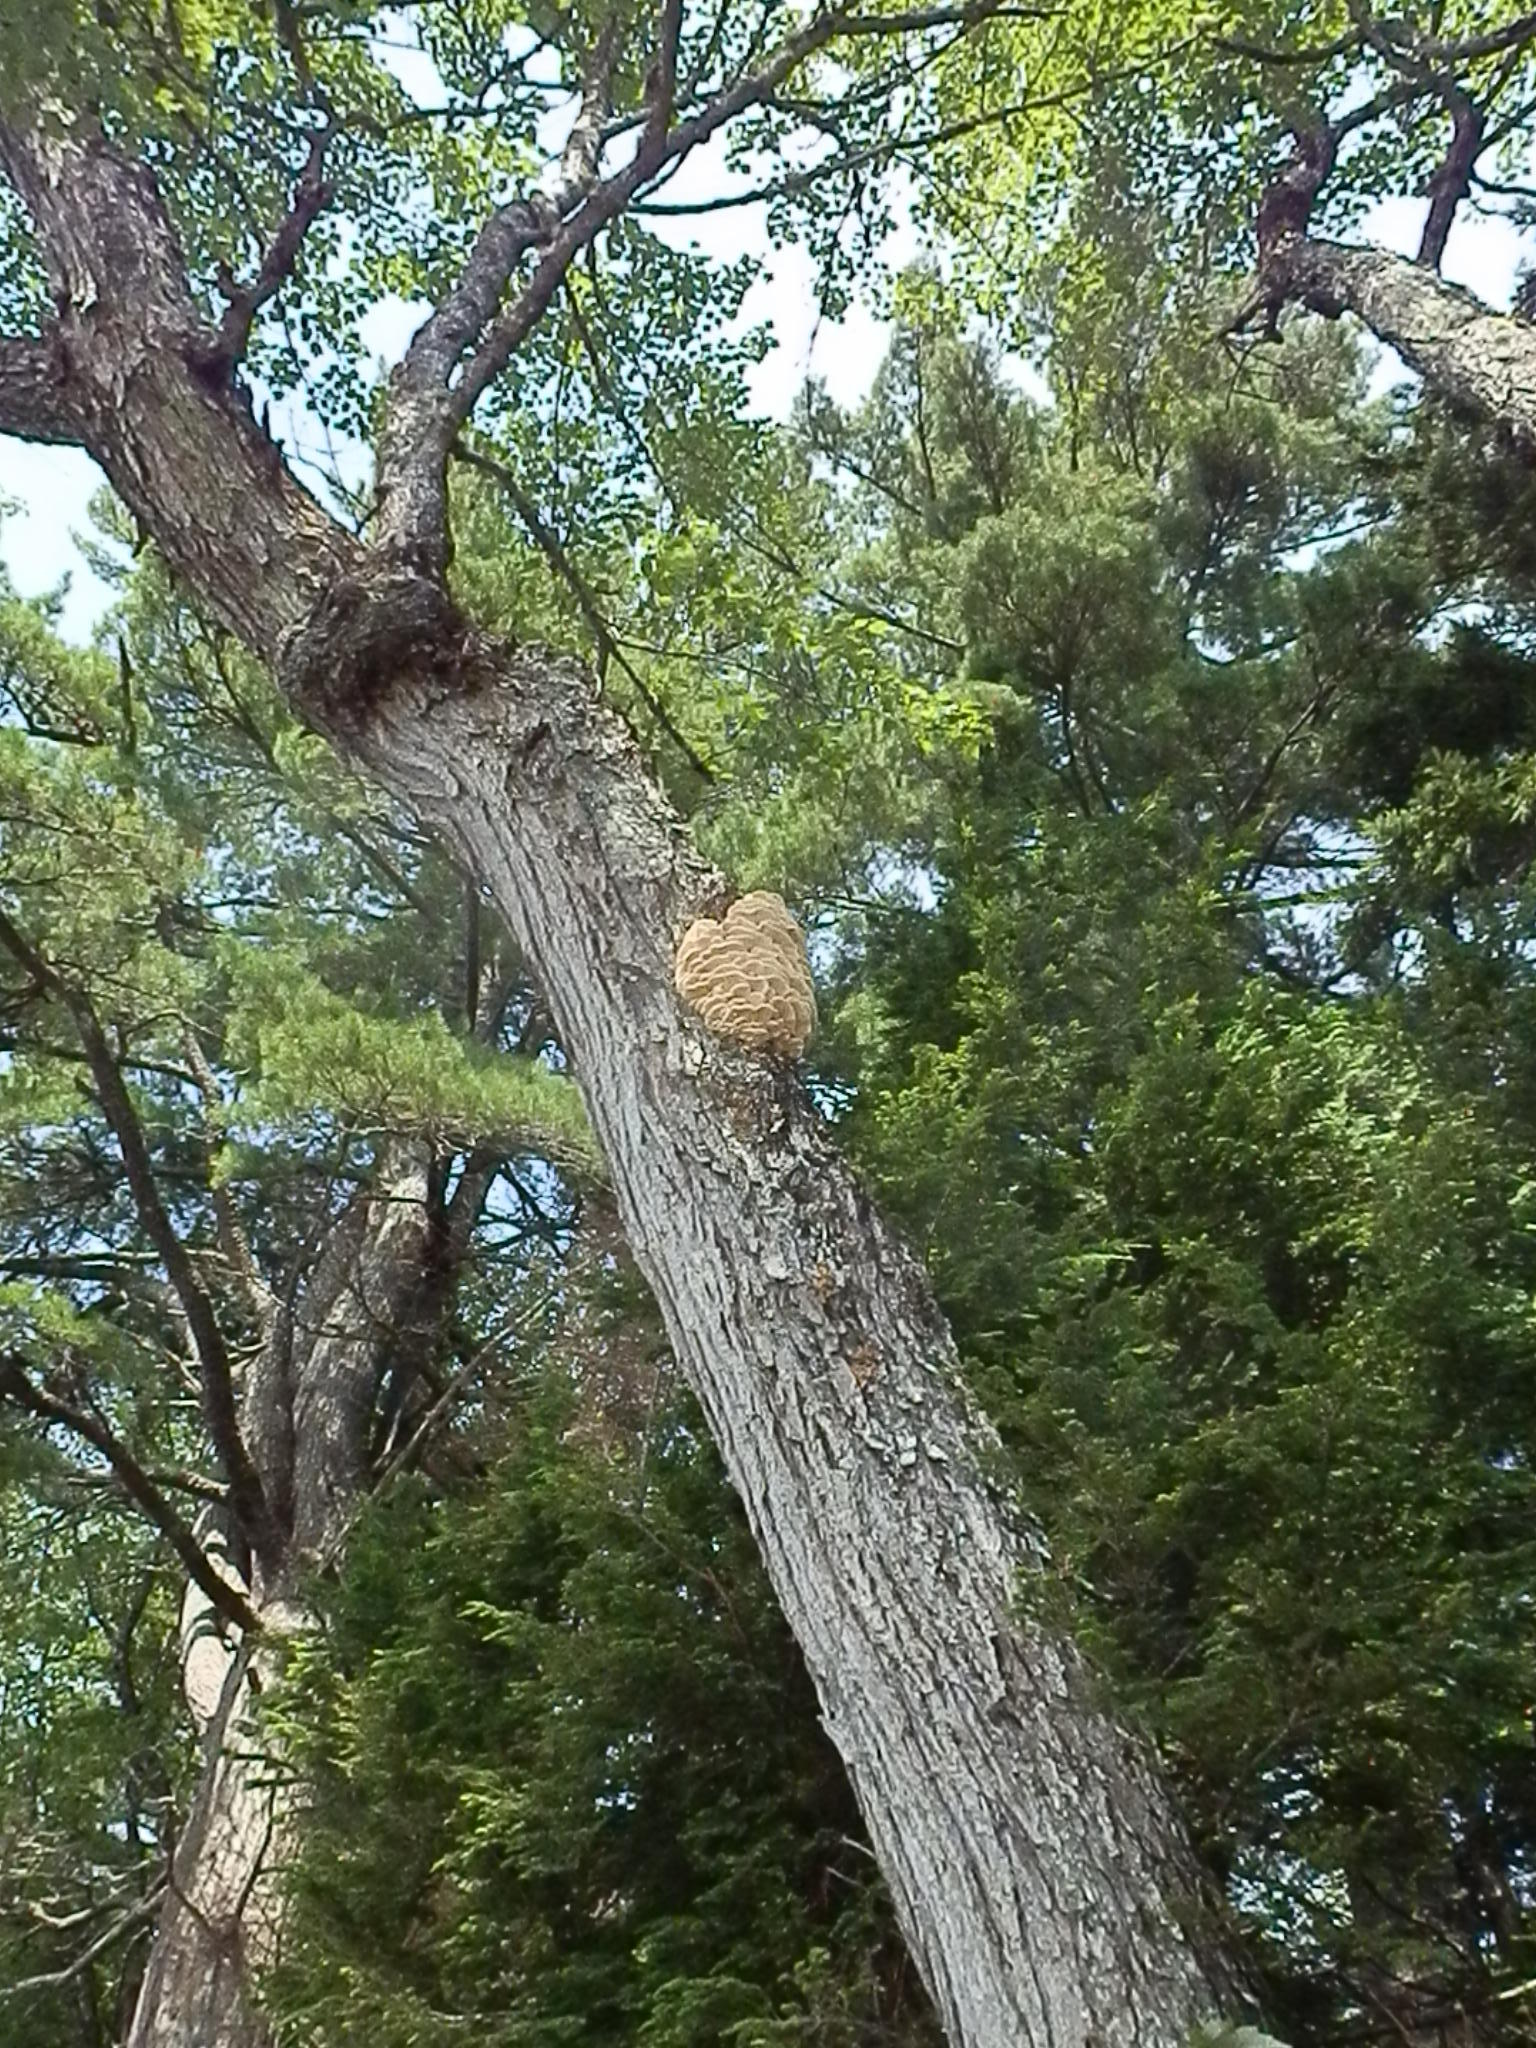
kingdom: Fungi
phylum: Basidiomycota
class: Agaricomycetes
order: Polyporales
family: Meruliaceae
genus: Climacodon
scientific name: Climacodon septentrionalis
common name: Northern tooth
